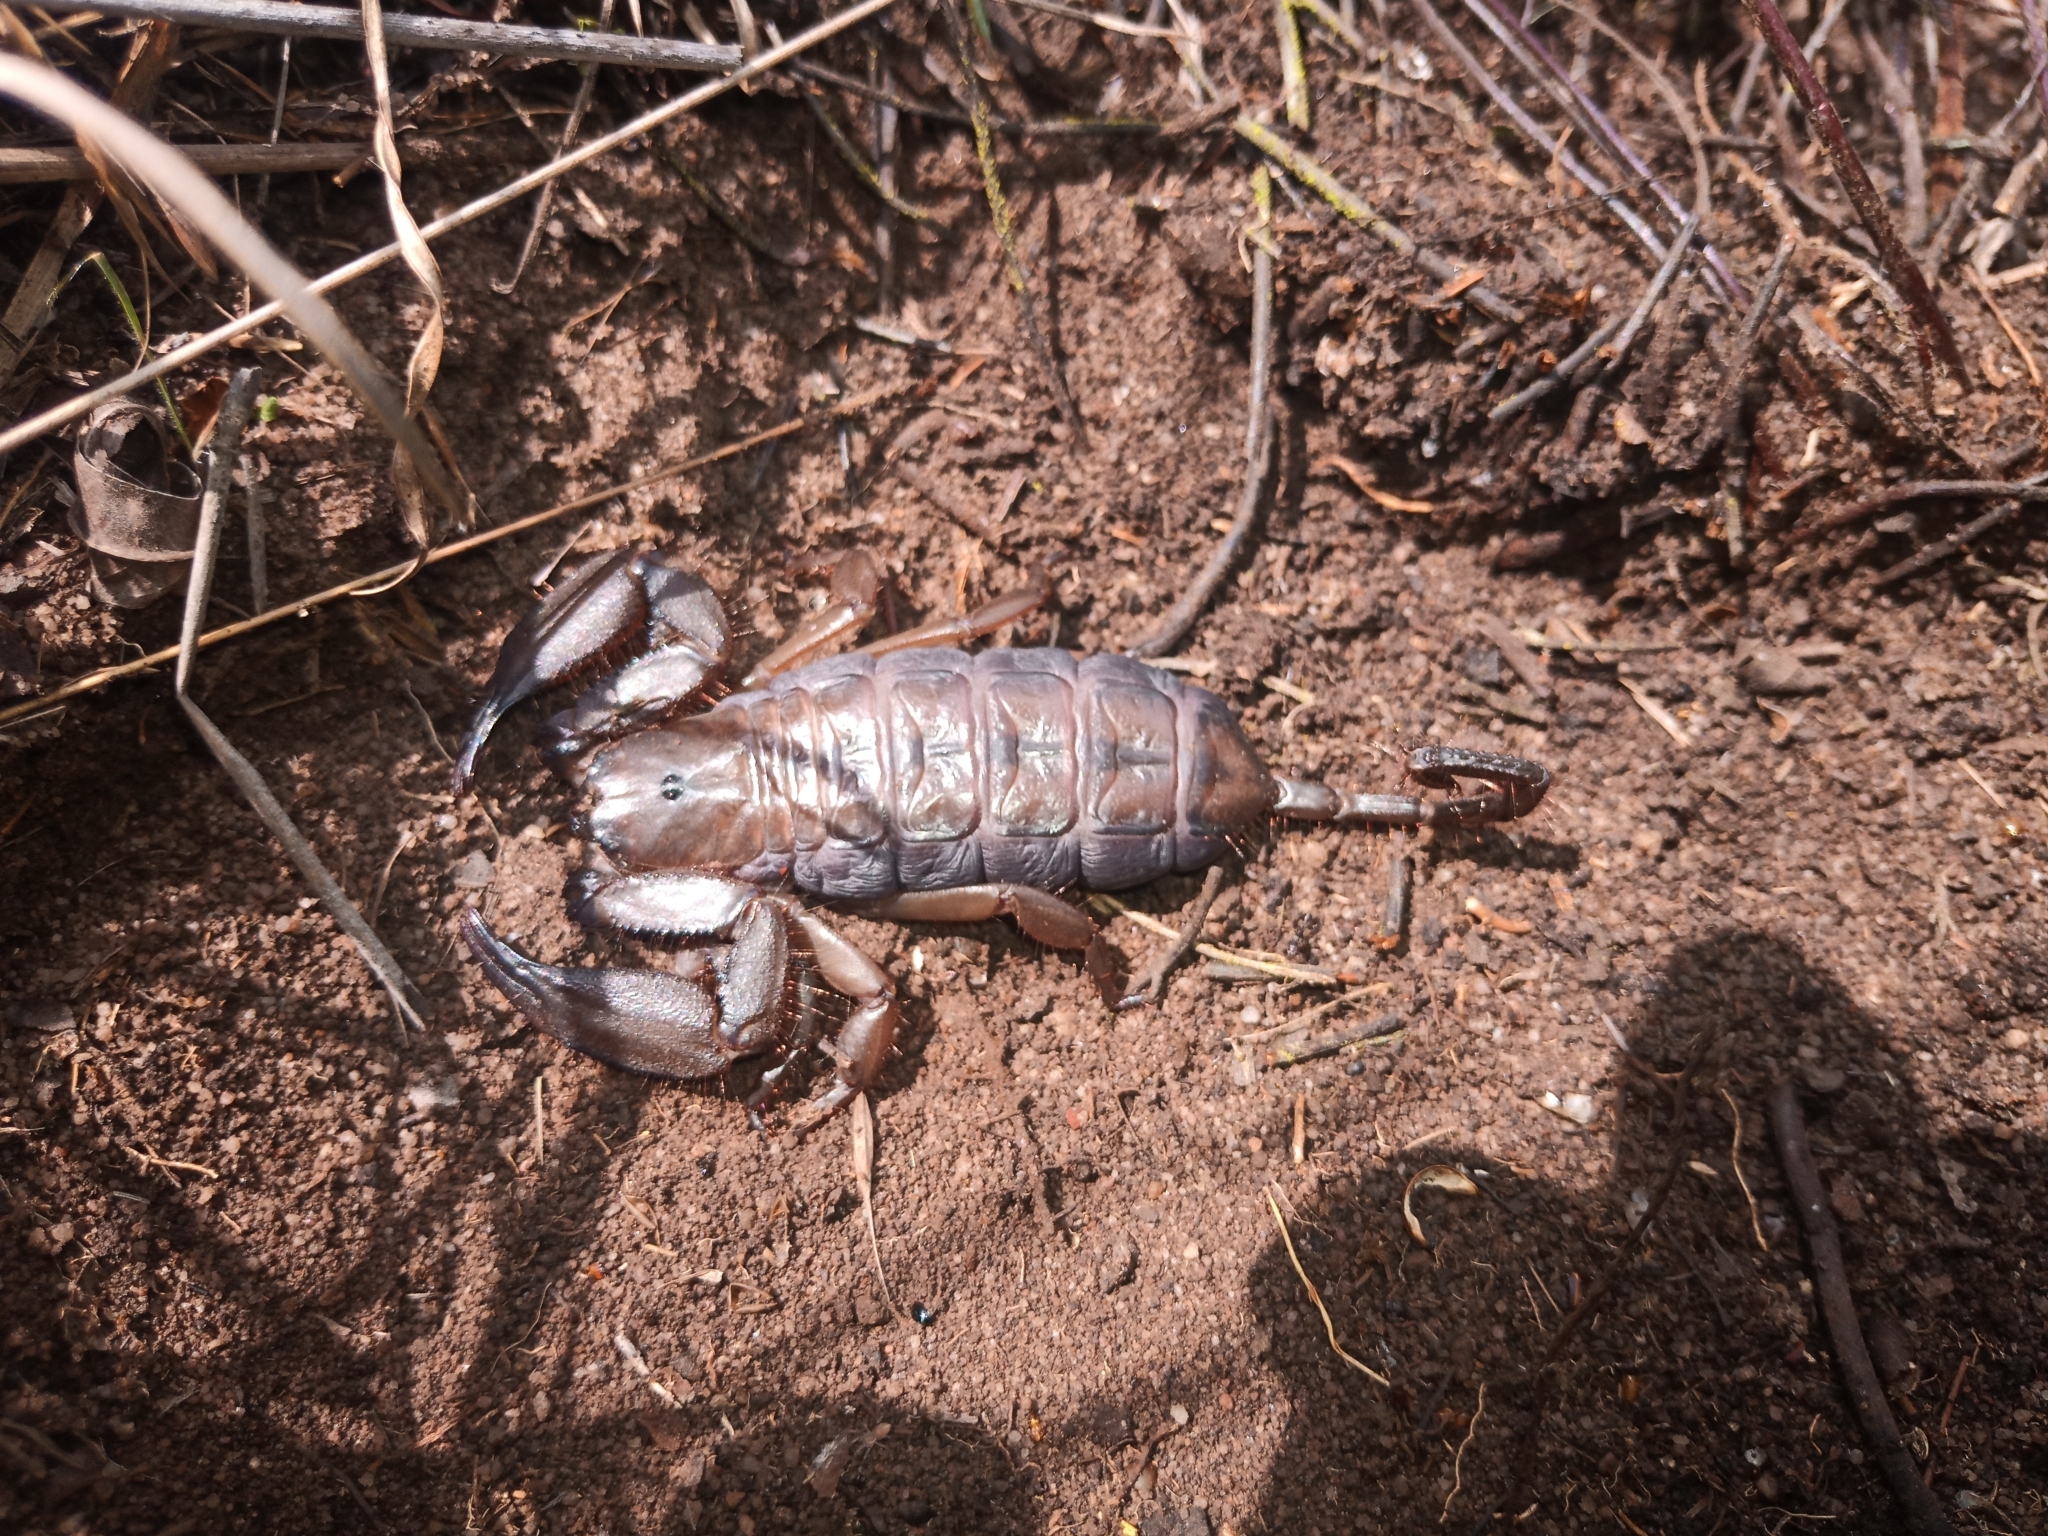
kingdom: Animalia
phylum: Arthropoda
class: Arachnida
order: Scorpiones
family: Hormuridae
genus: Hadogenes
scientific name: Hadogenes soutpansbergensis
